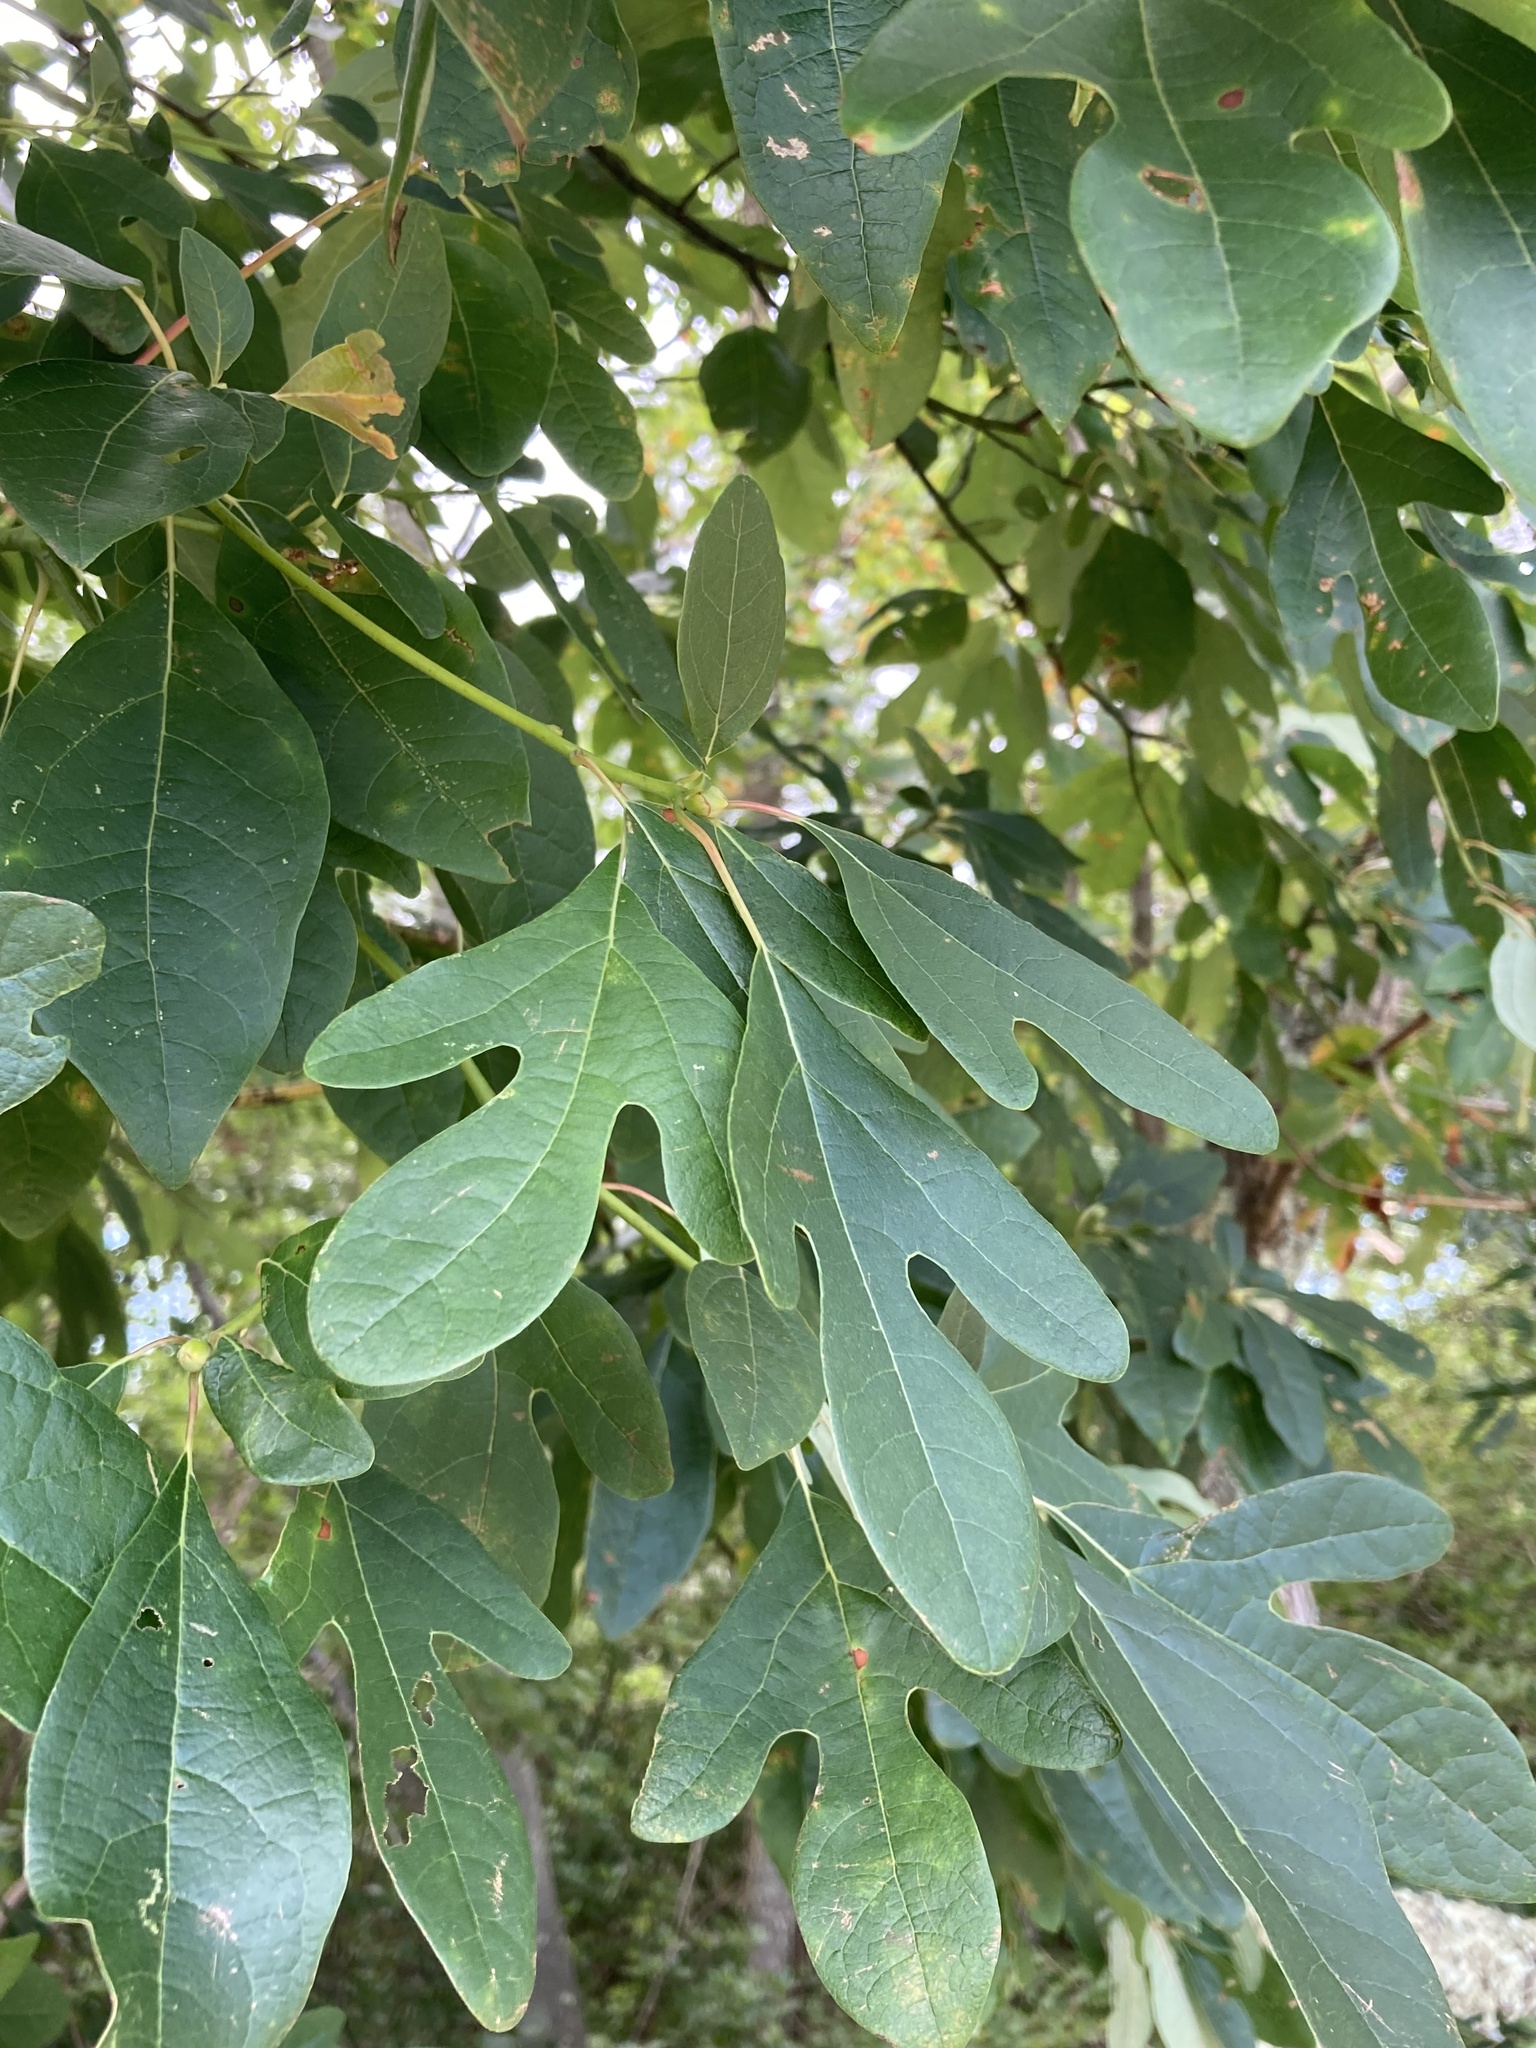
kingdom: Plantae
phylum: Tracheophyta
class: Magnoliopsida
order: Laurales
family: Lauraceae
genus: Sassafras
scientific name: Sassafras albidum
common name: Sassafras
